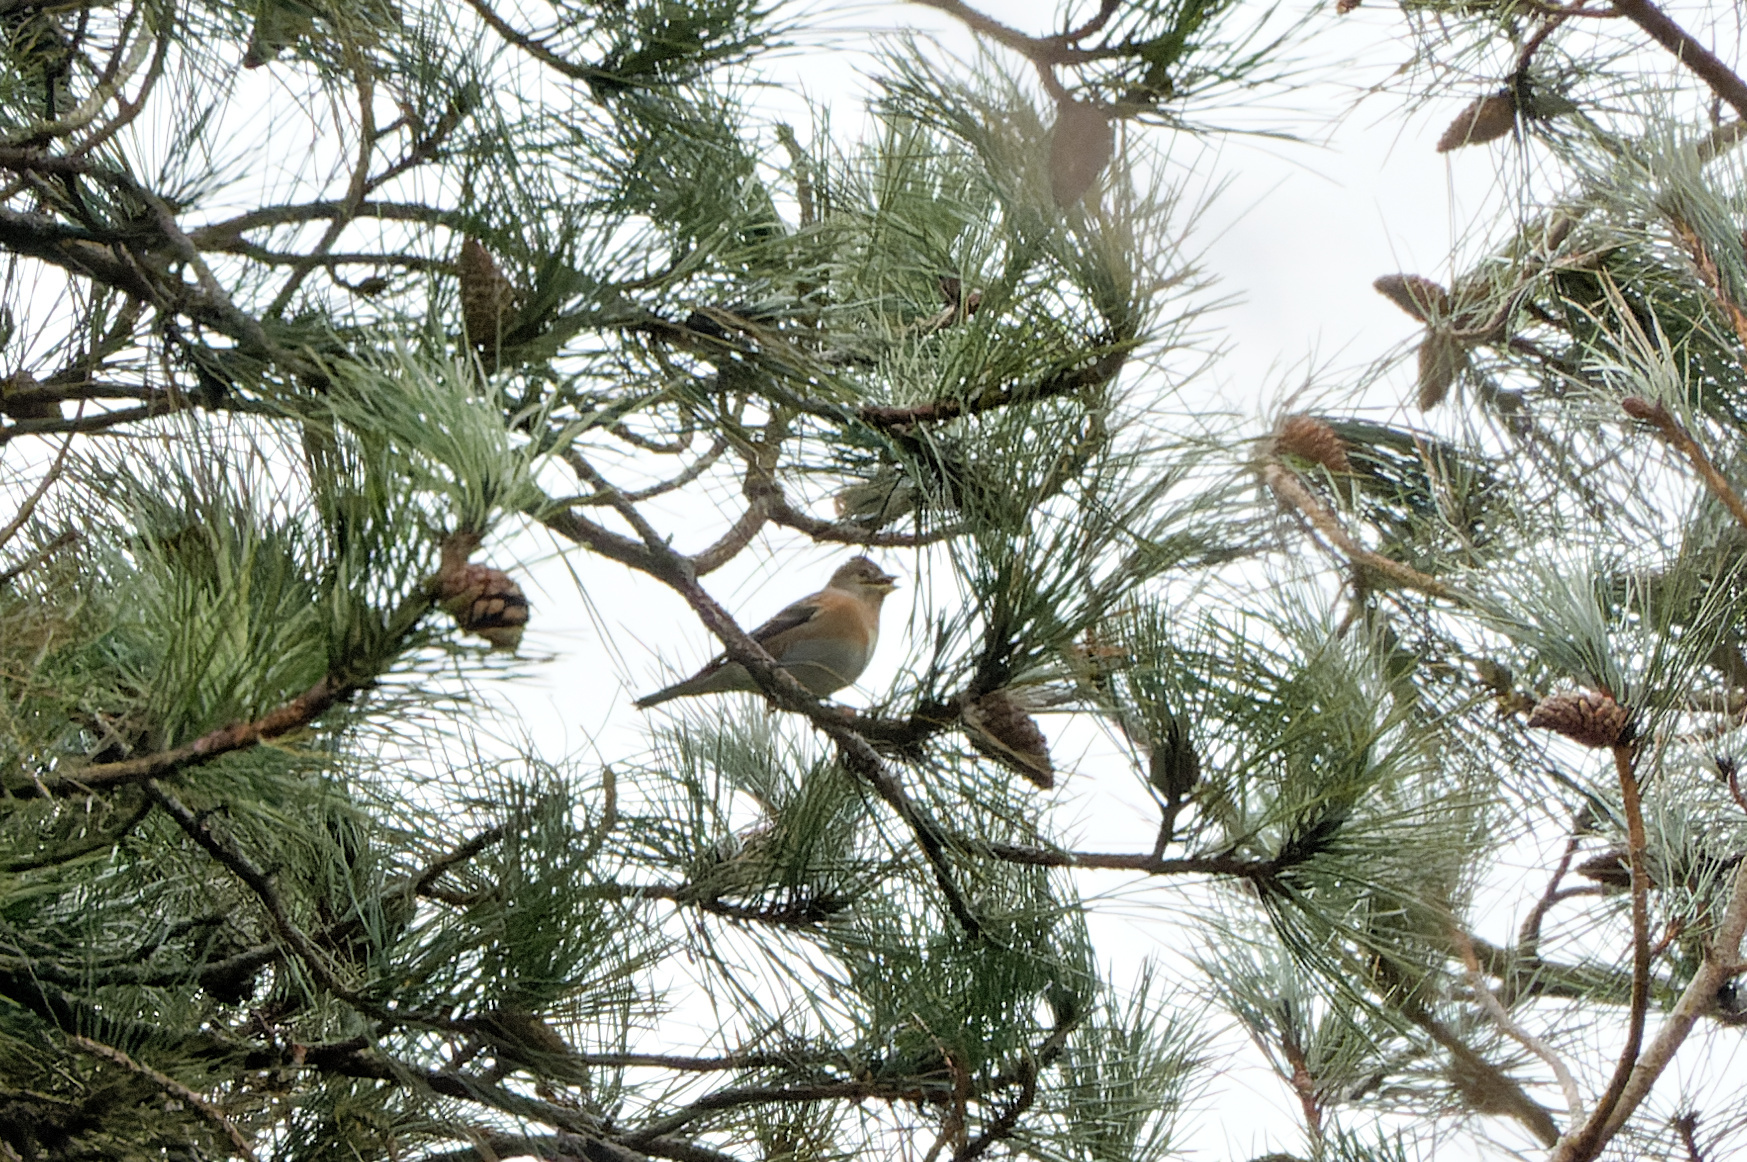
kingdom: Animalia
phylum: Chordata
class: Aves
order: Passeriformes
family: Fringillidae
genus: Fringilla
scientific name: Fringilla montifringilla
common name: Brambling
